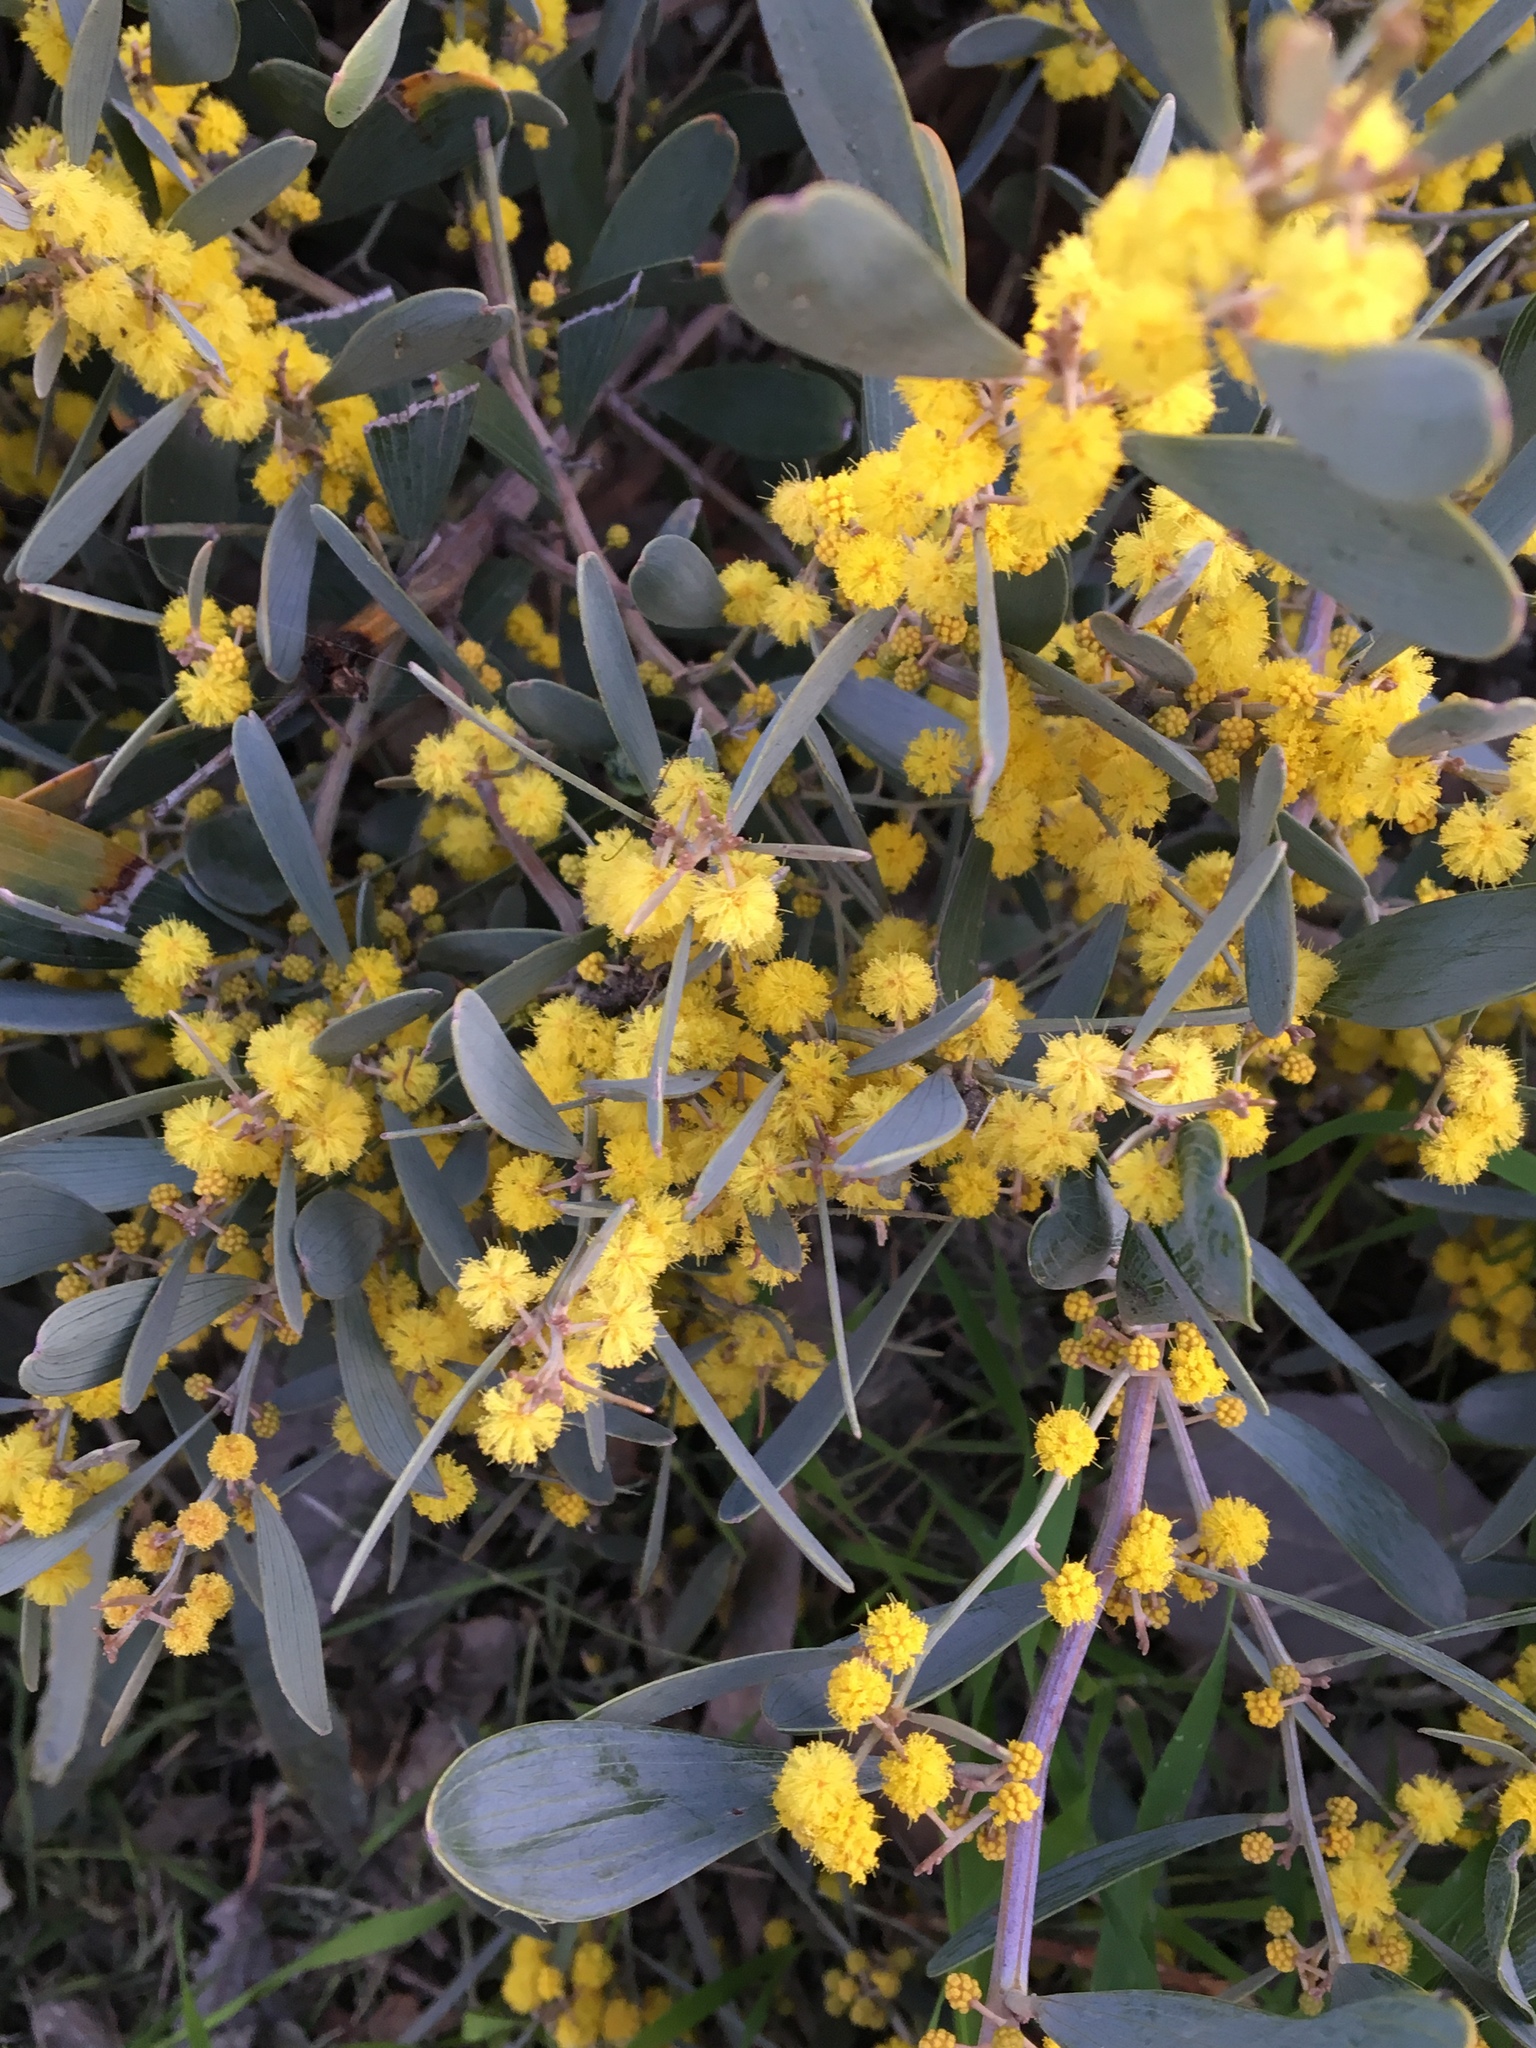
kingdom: Plantae
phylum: Tracheophyta
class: Magnoliopsida
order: Fabales
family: Fabaceae
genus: Acacia
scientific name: Acacia redolens
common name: Bank catclaw
